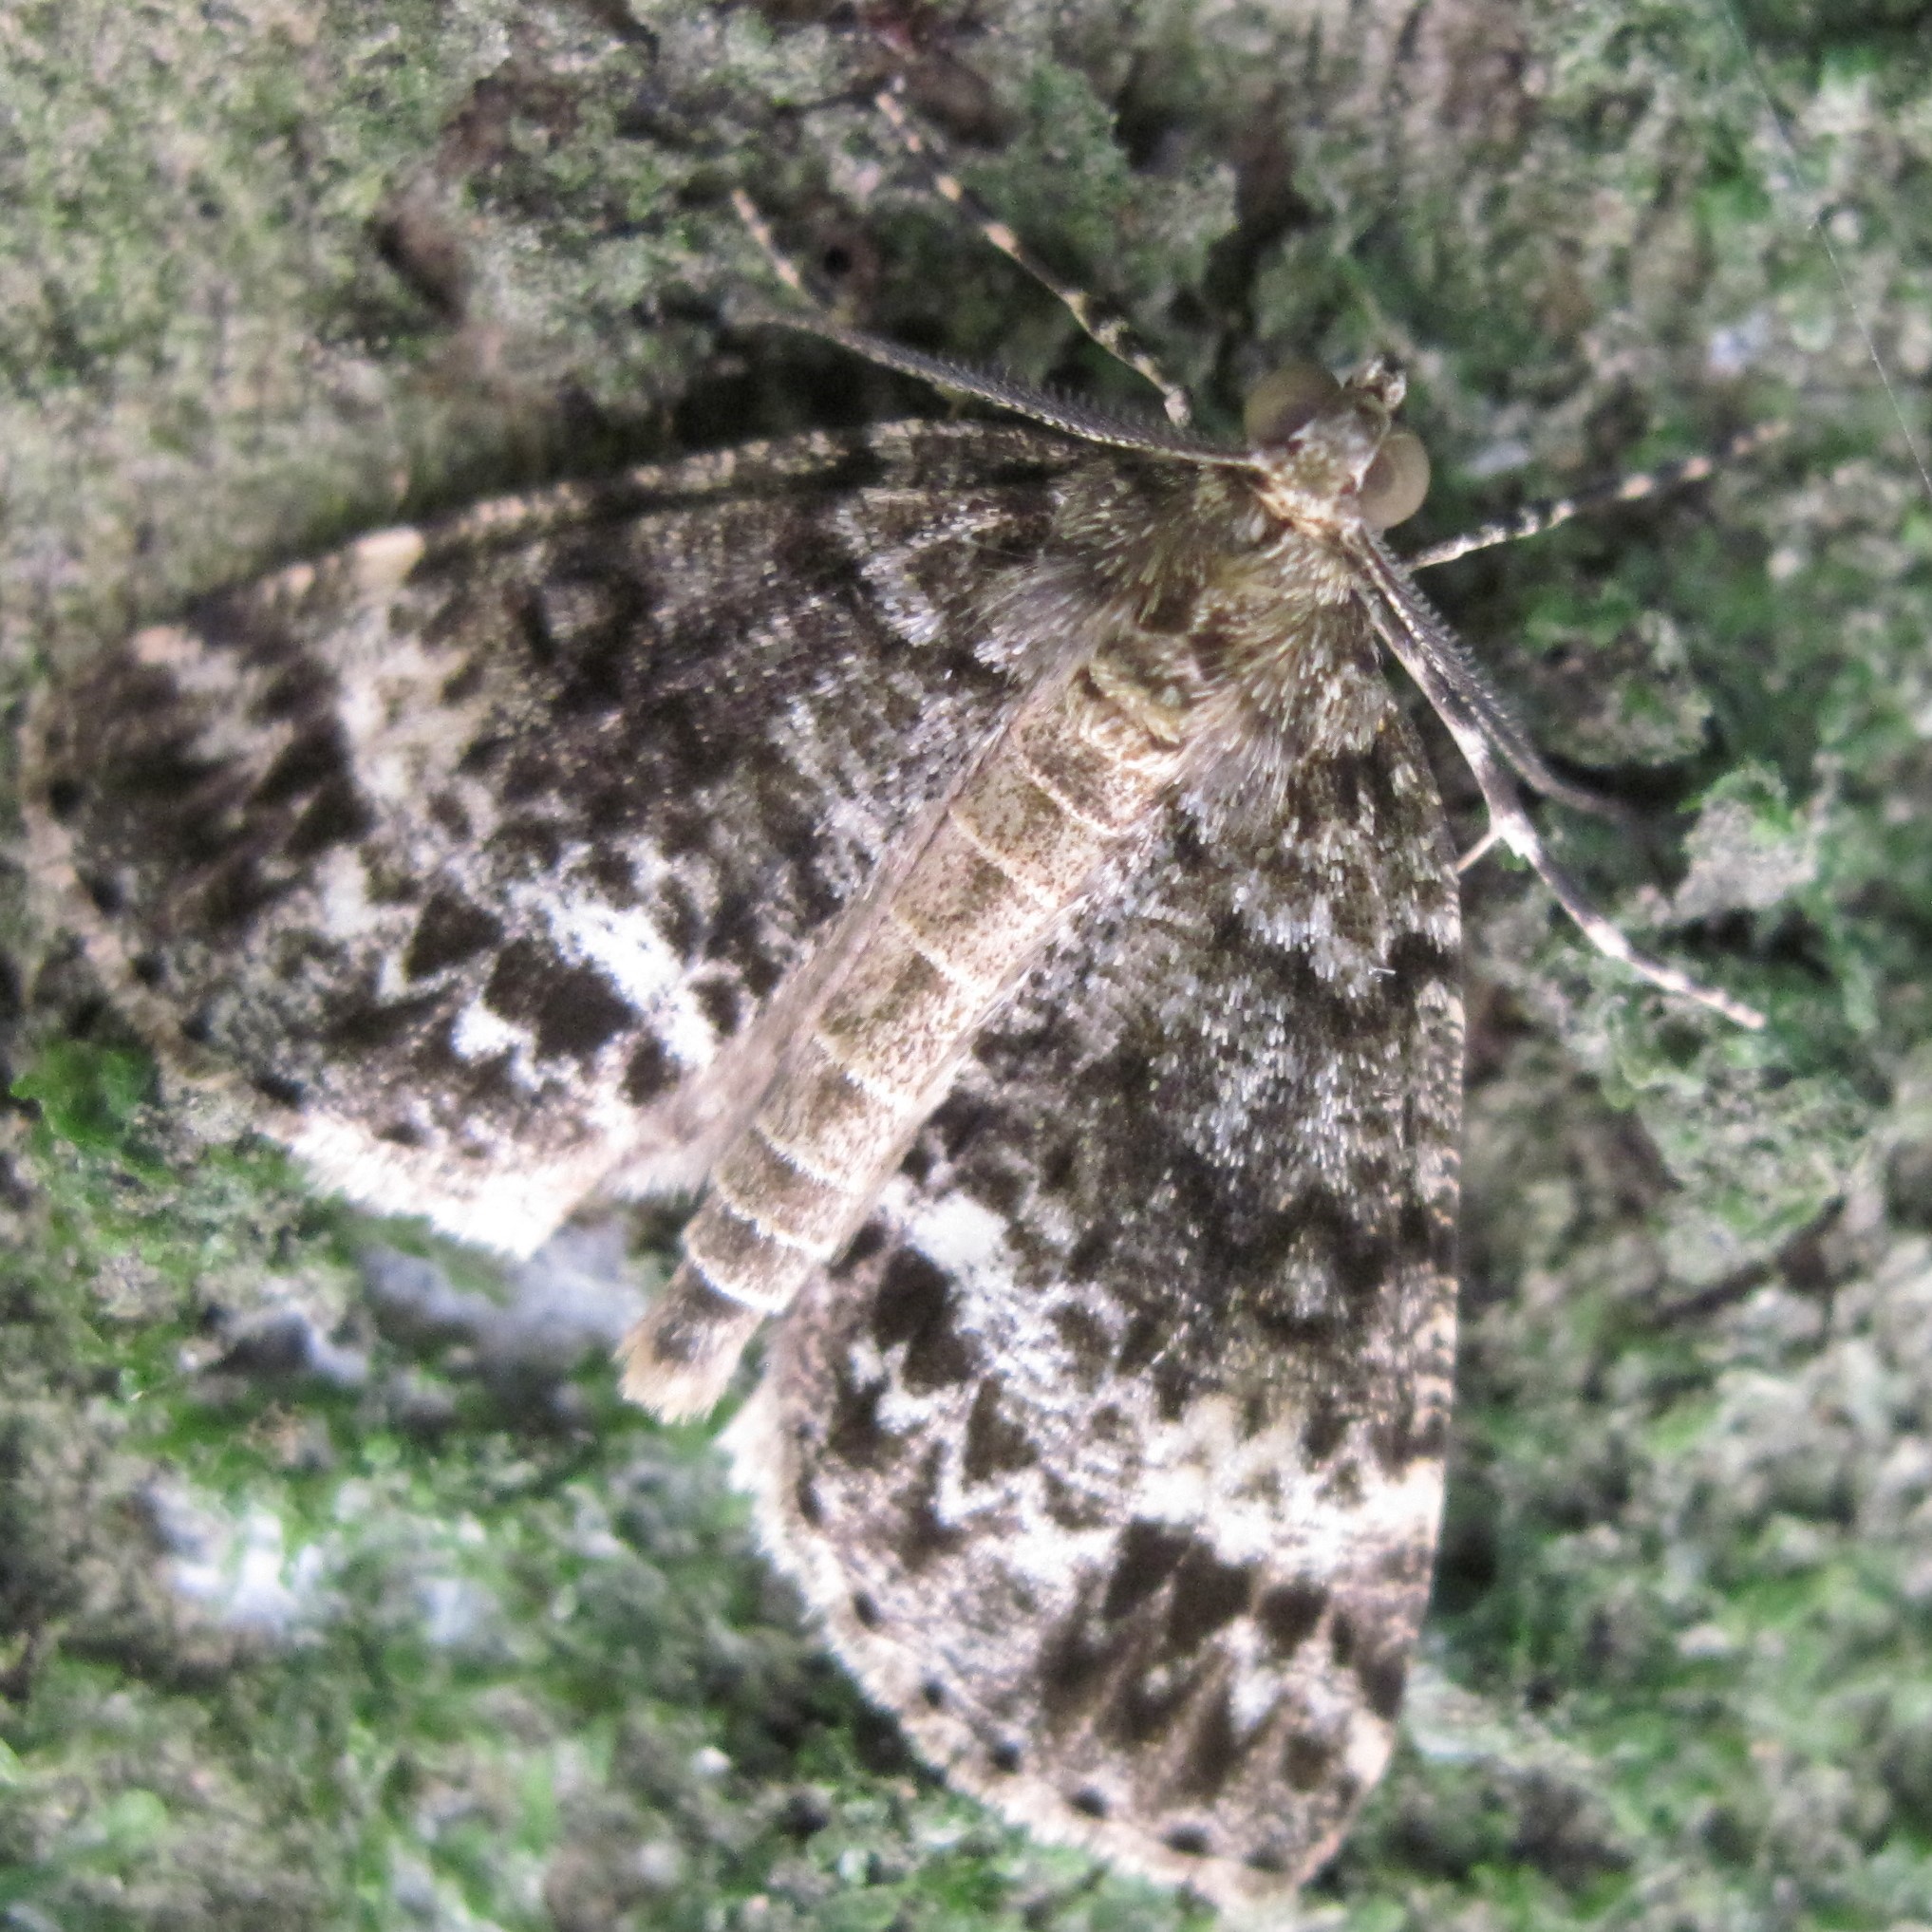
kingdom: Animalia
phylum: Arthropoda
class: Insecta
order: Lepidoptera
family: Geometridae
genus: Pseudocoremia
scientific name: Pseudocoremia indistincta
